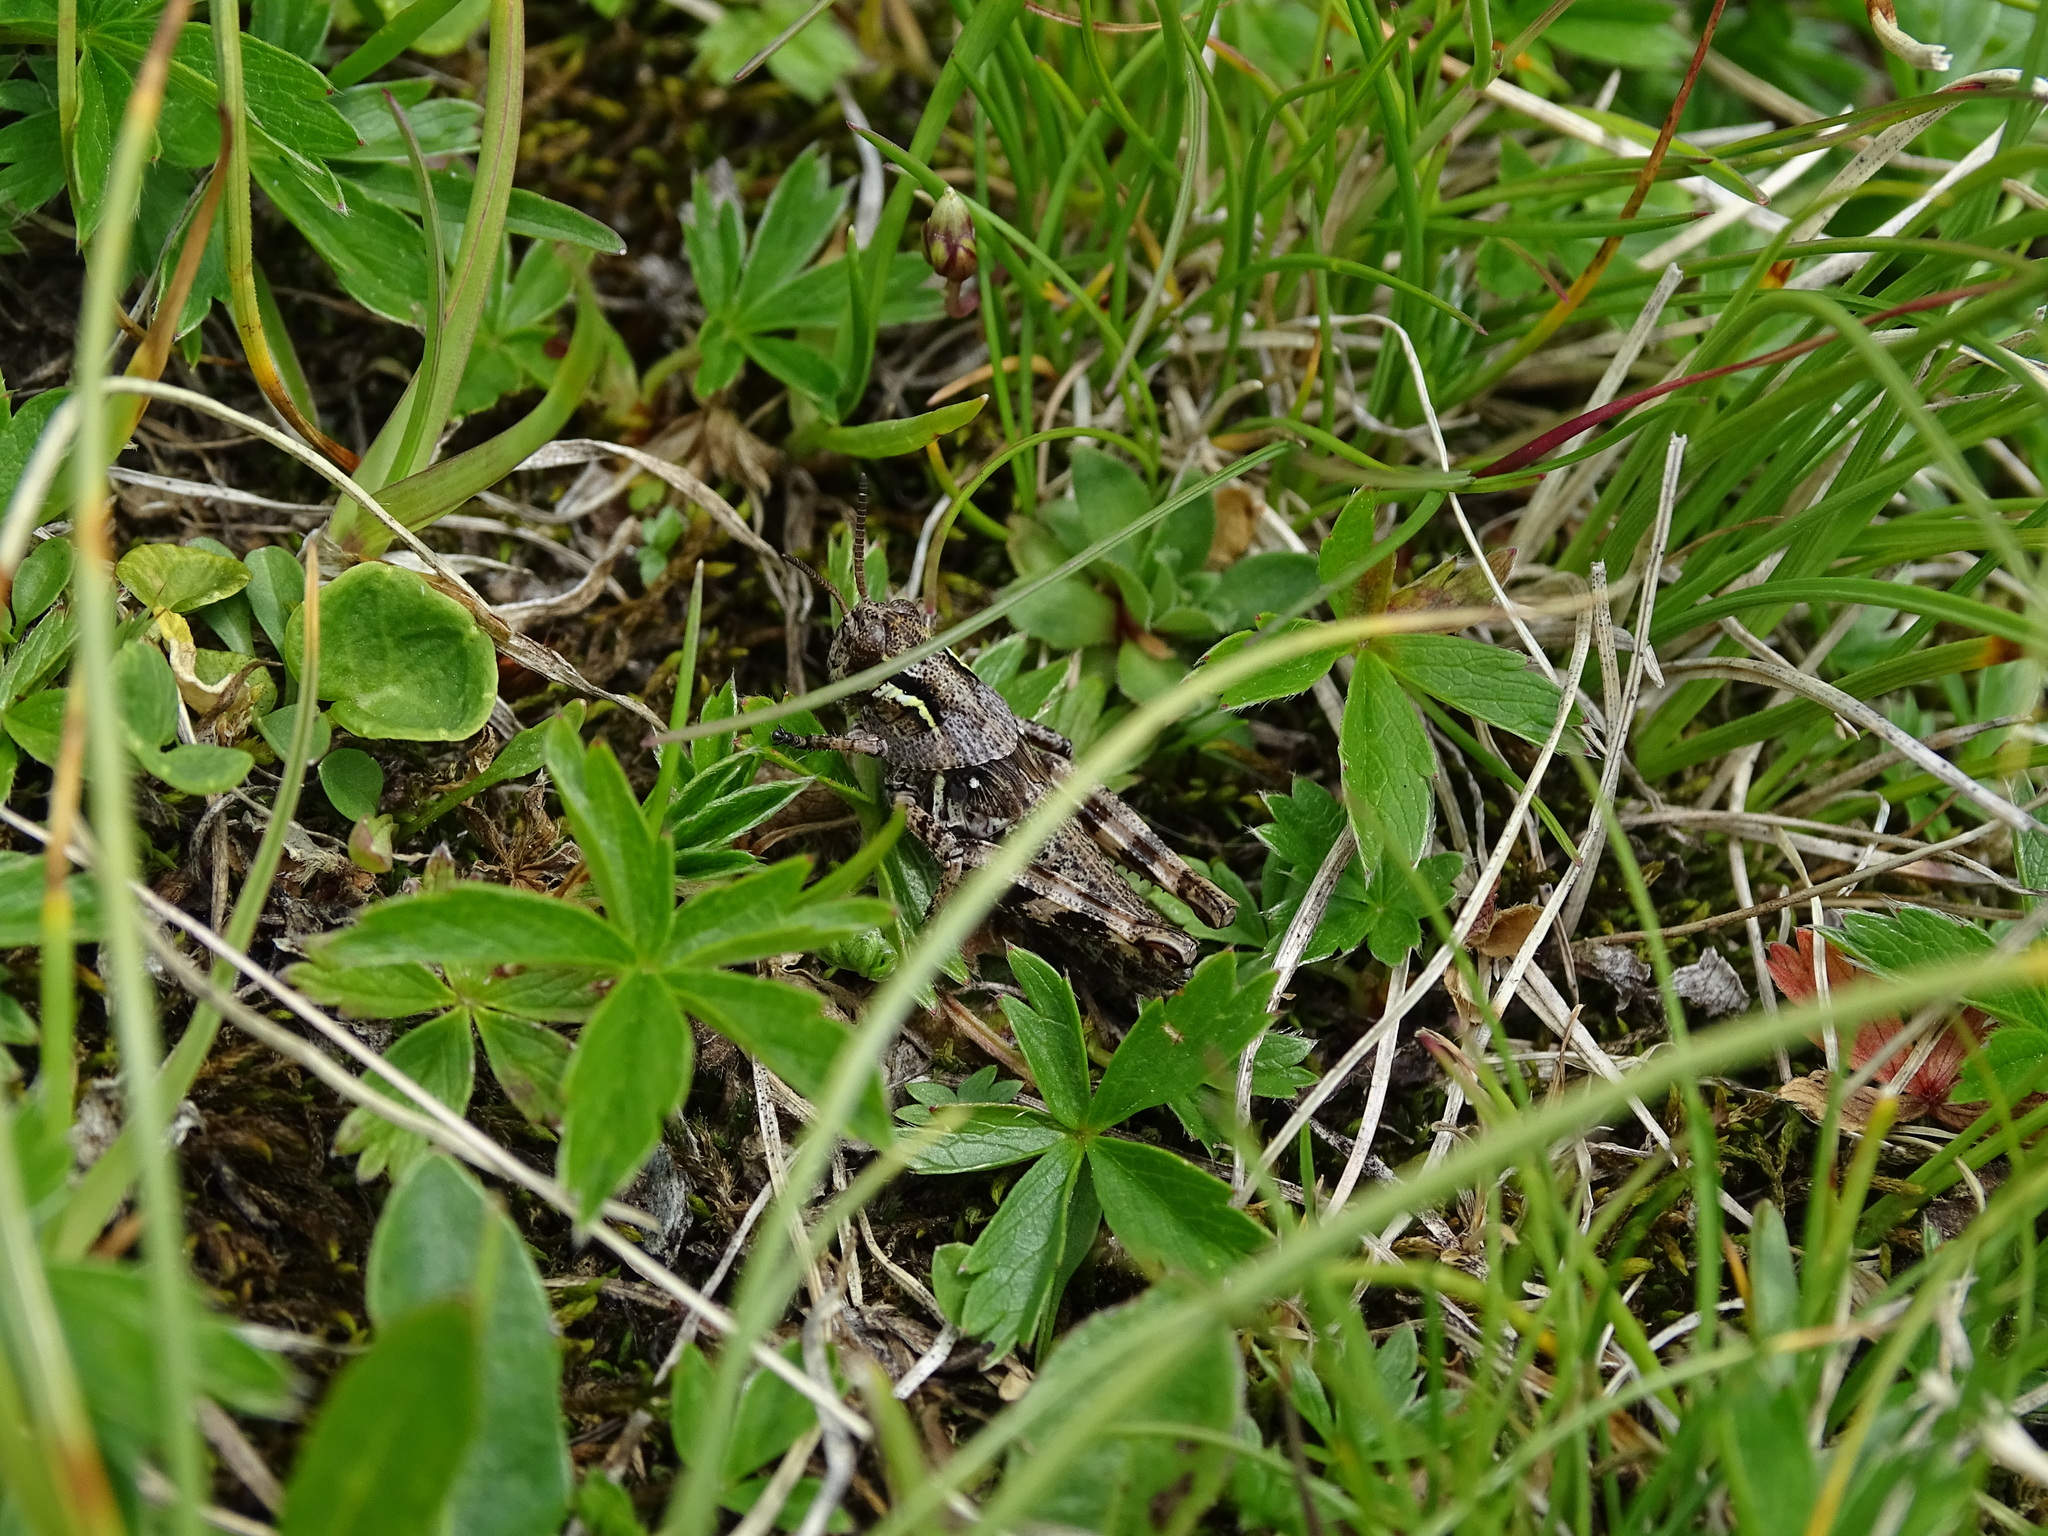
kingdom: Animalia
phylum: Arthropoda
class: Insecta
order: Orthoptera
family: Acrididae
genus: Bohemanella
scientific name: Bohemanella frigida
